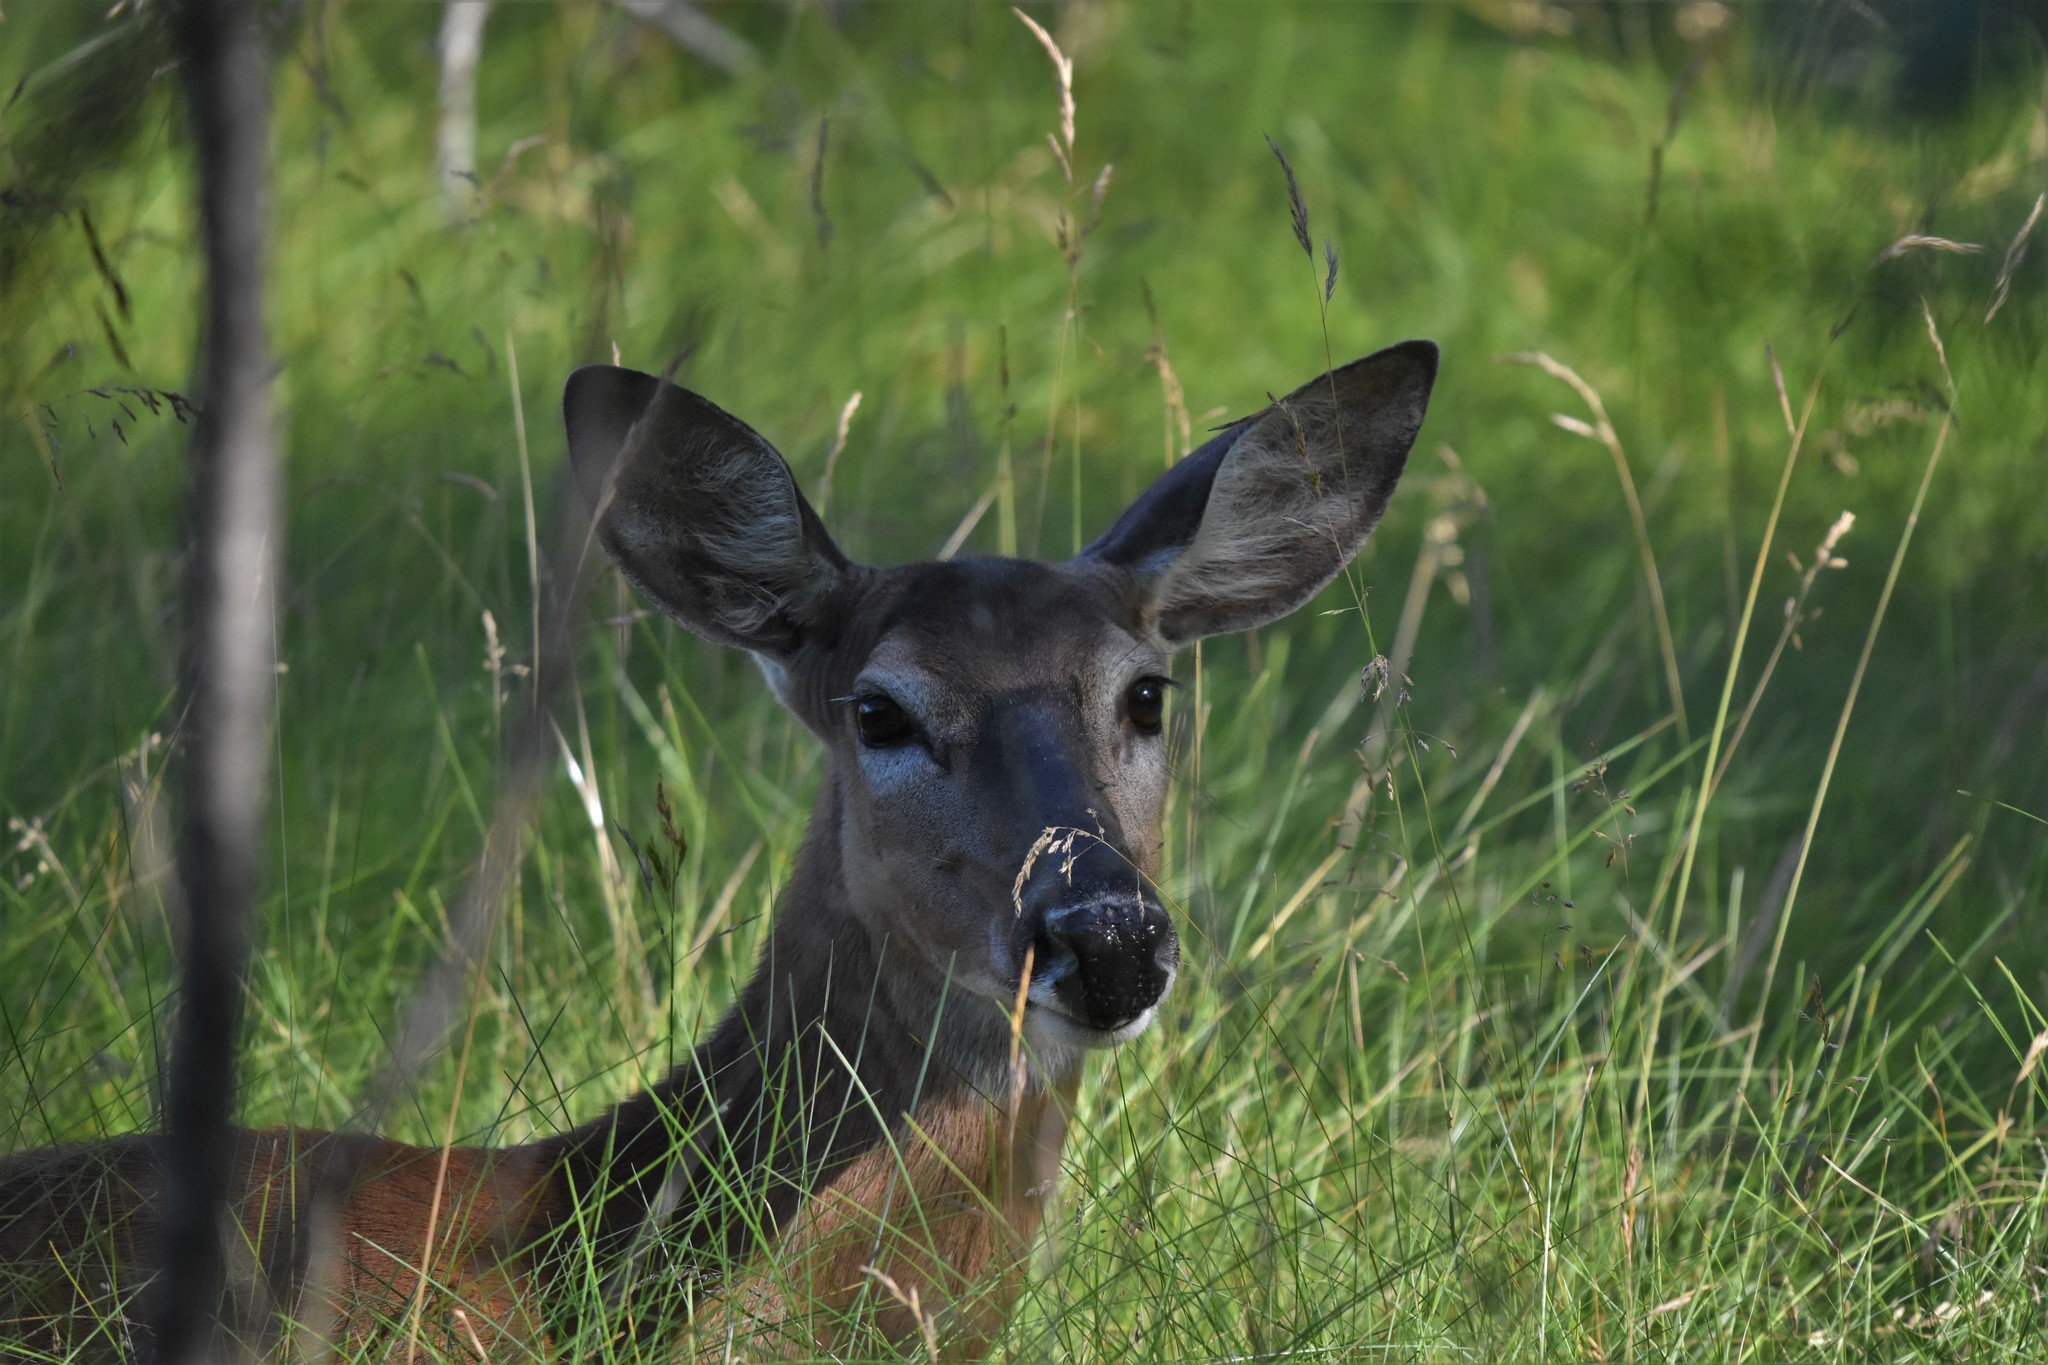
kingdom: Animalia
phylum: Chordata
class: Mammalia
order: Artiodactyla
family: Cervidae
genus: Odocoileus
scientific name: Odocoileus virginianus
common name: White-tailed deer
